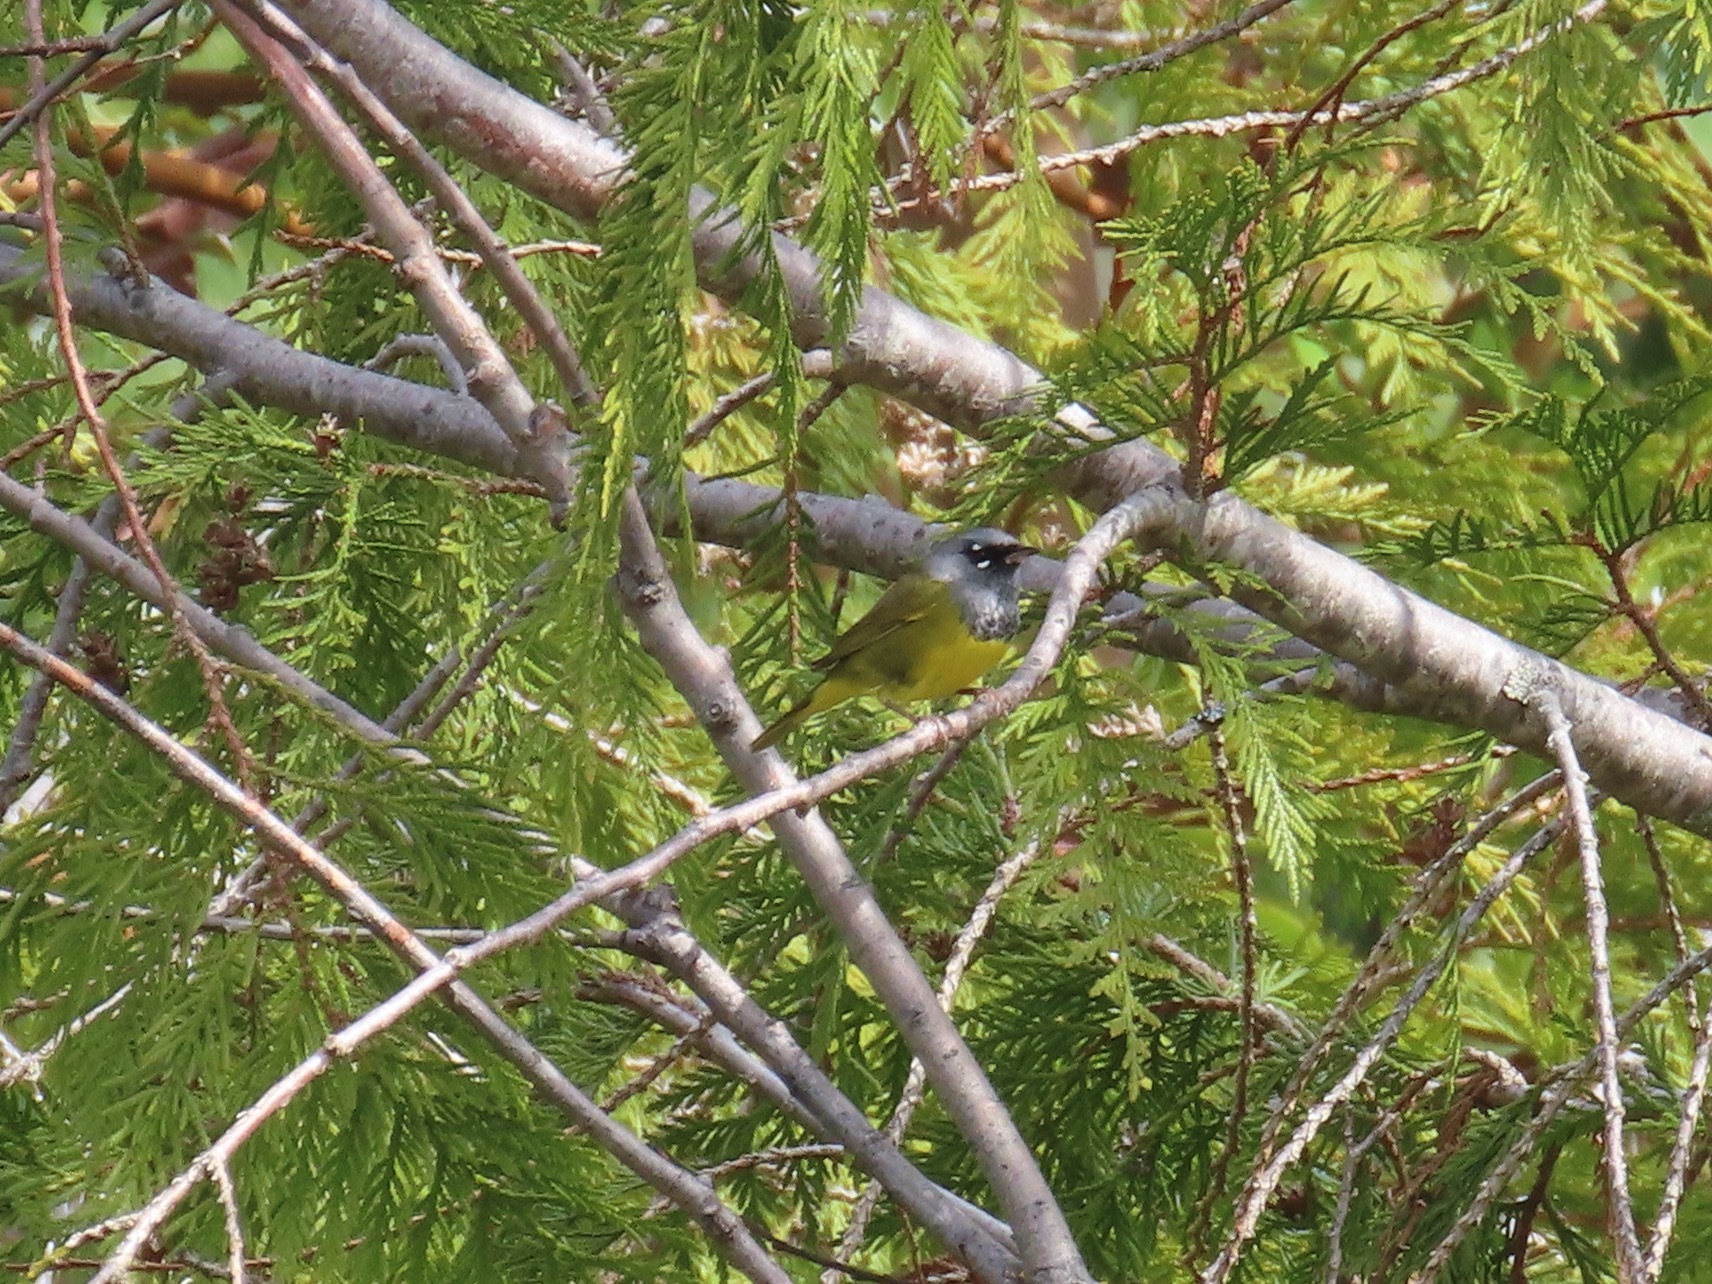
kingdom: Animalia
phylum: Chordata
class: Aves
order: Passeriformes
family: Parulidae
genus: Geothlypis
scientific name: Geothlypis tolmiei
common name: Macgillivray's warbler
